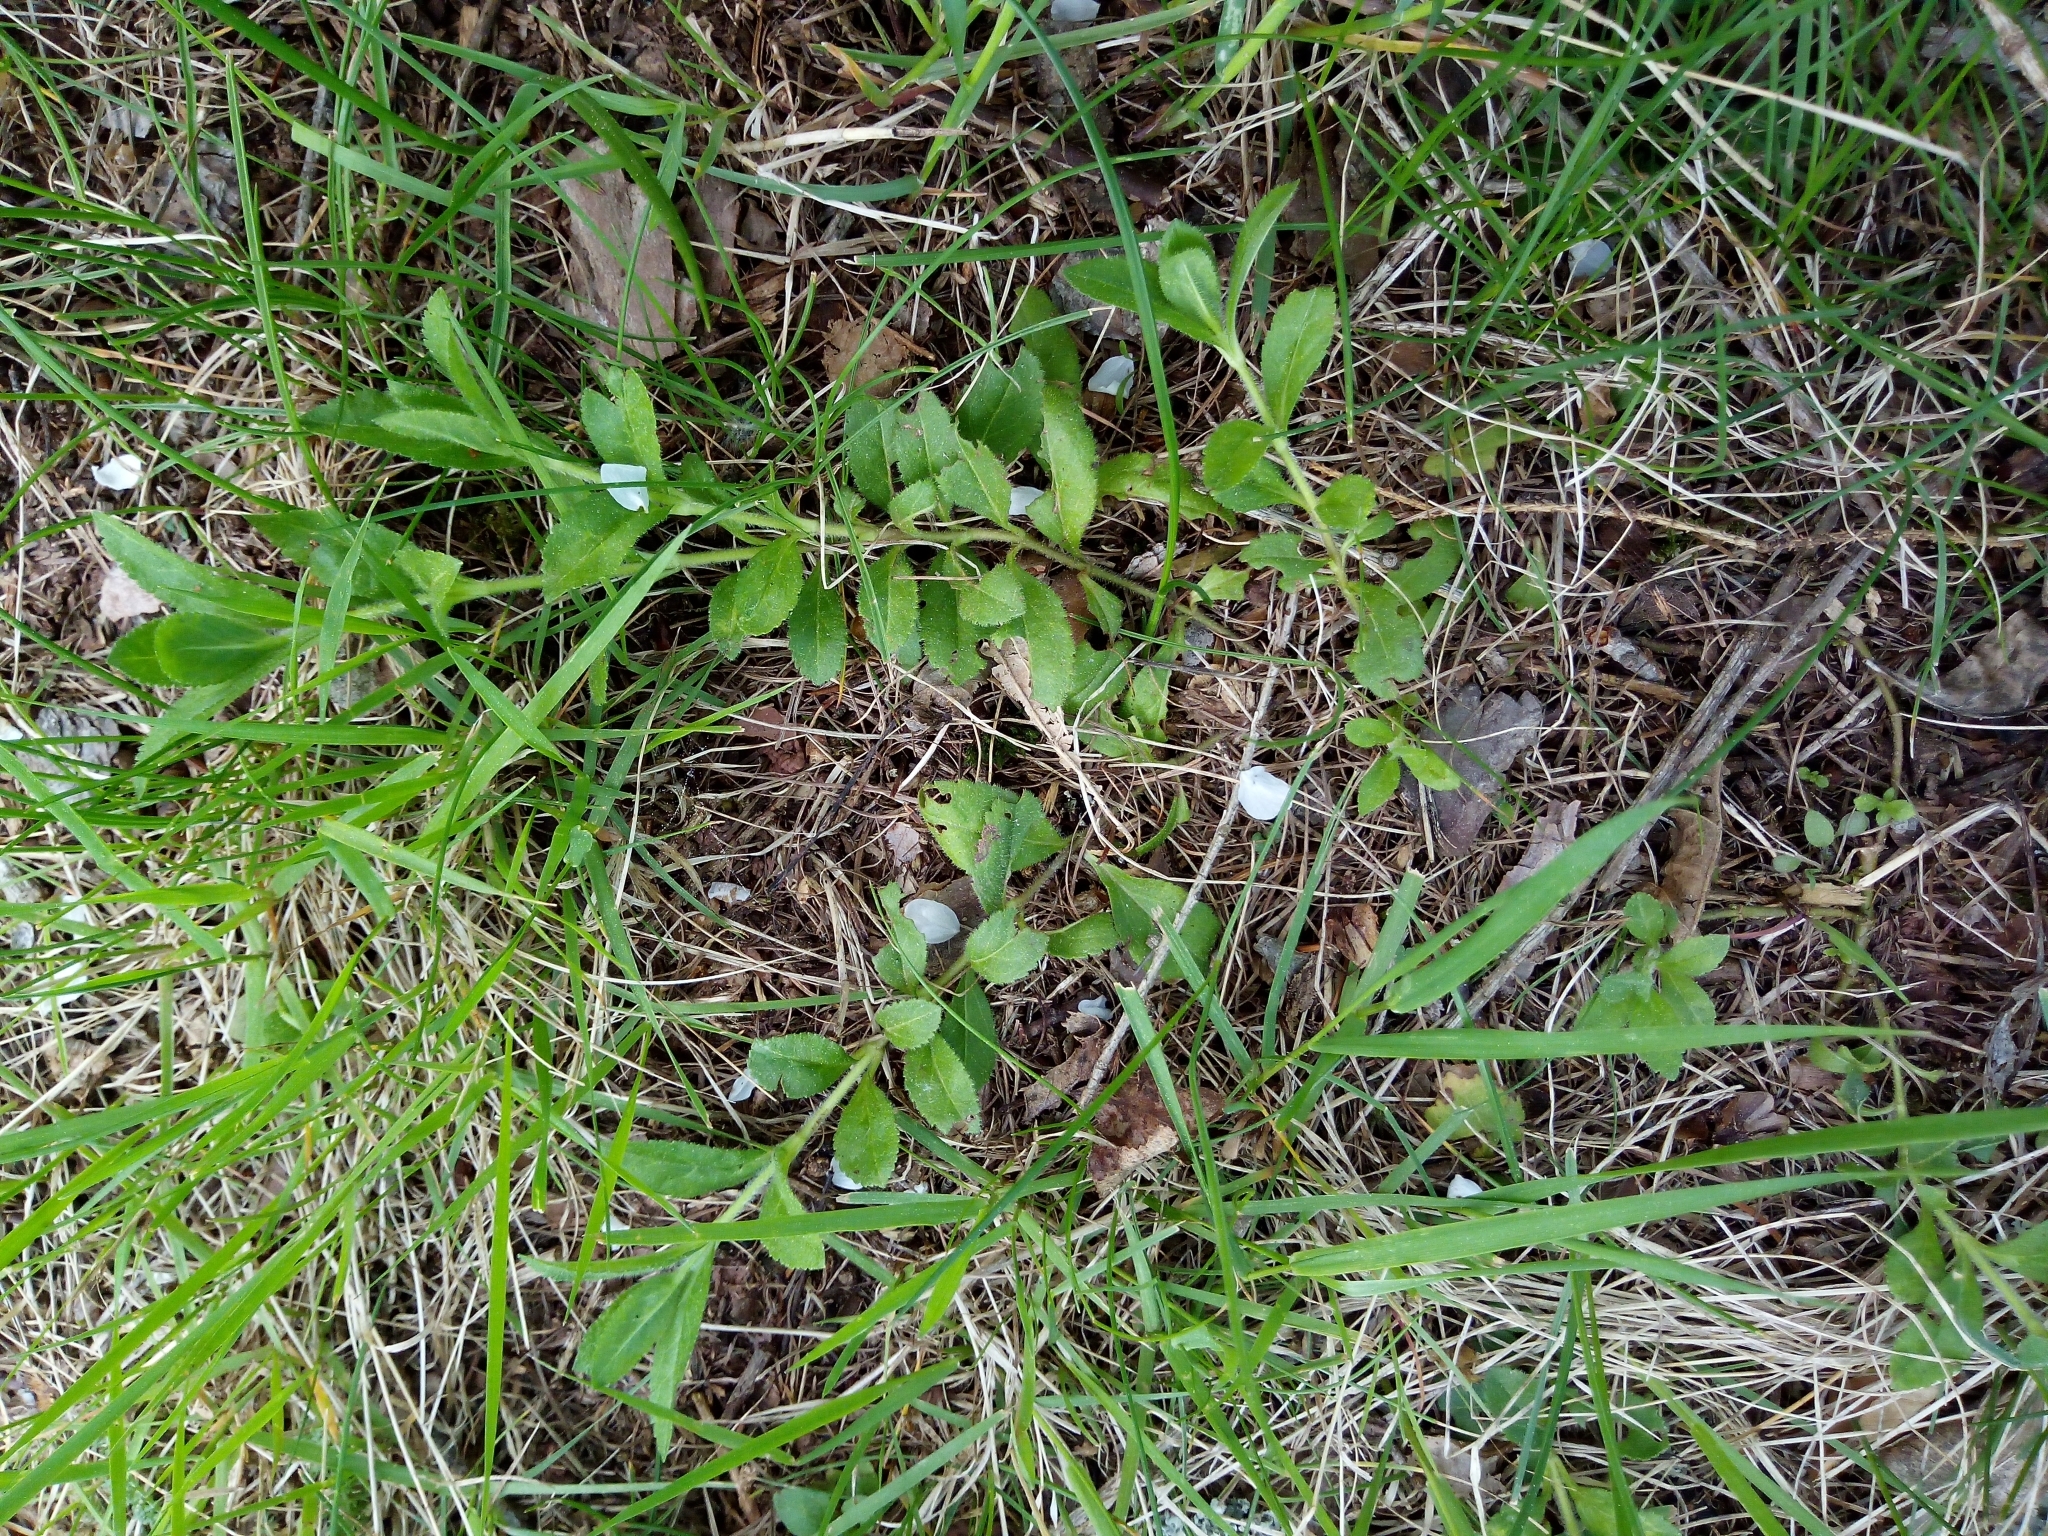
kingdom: Plantae
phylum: Tracheophyta
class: Magnoliopsida
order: Lamiales
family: Plantaginaceae
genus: Veronica
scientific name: Veronica officinalis
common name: Common speedwell
